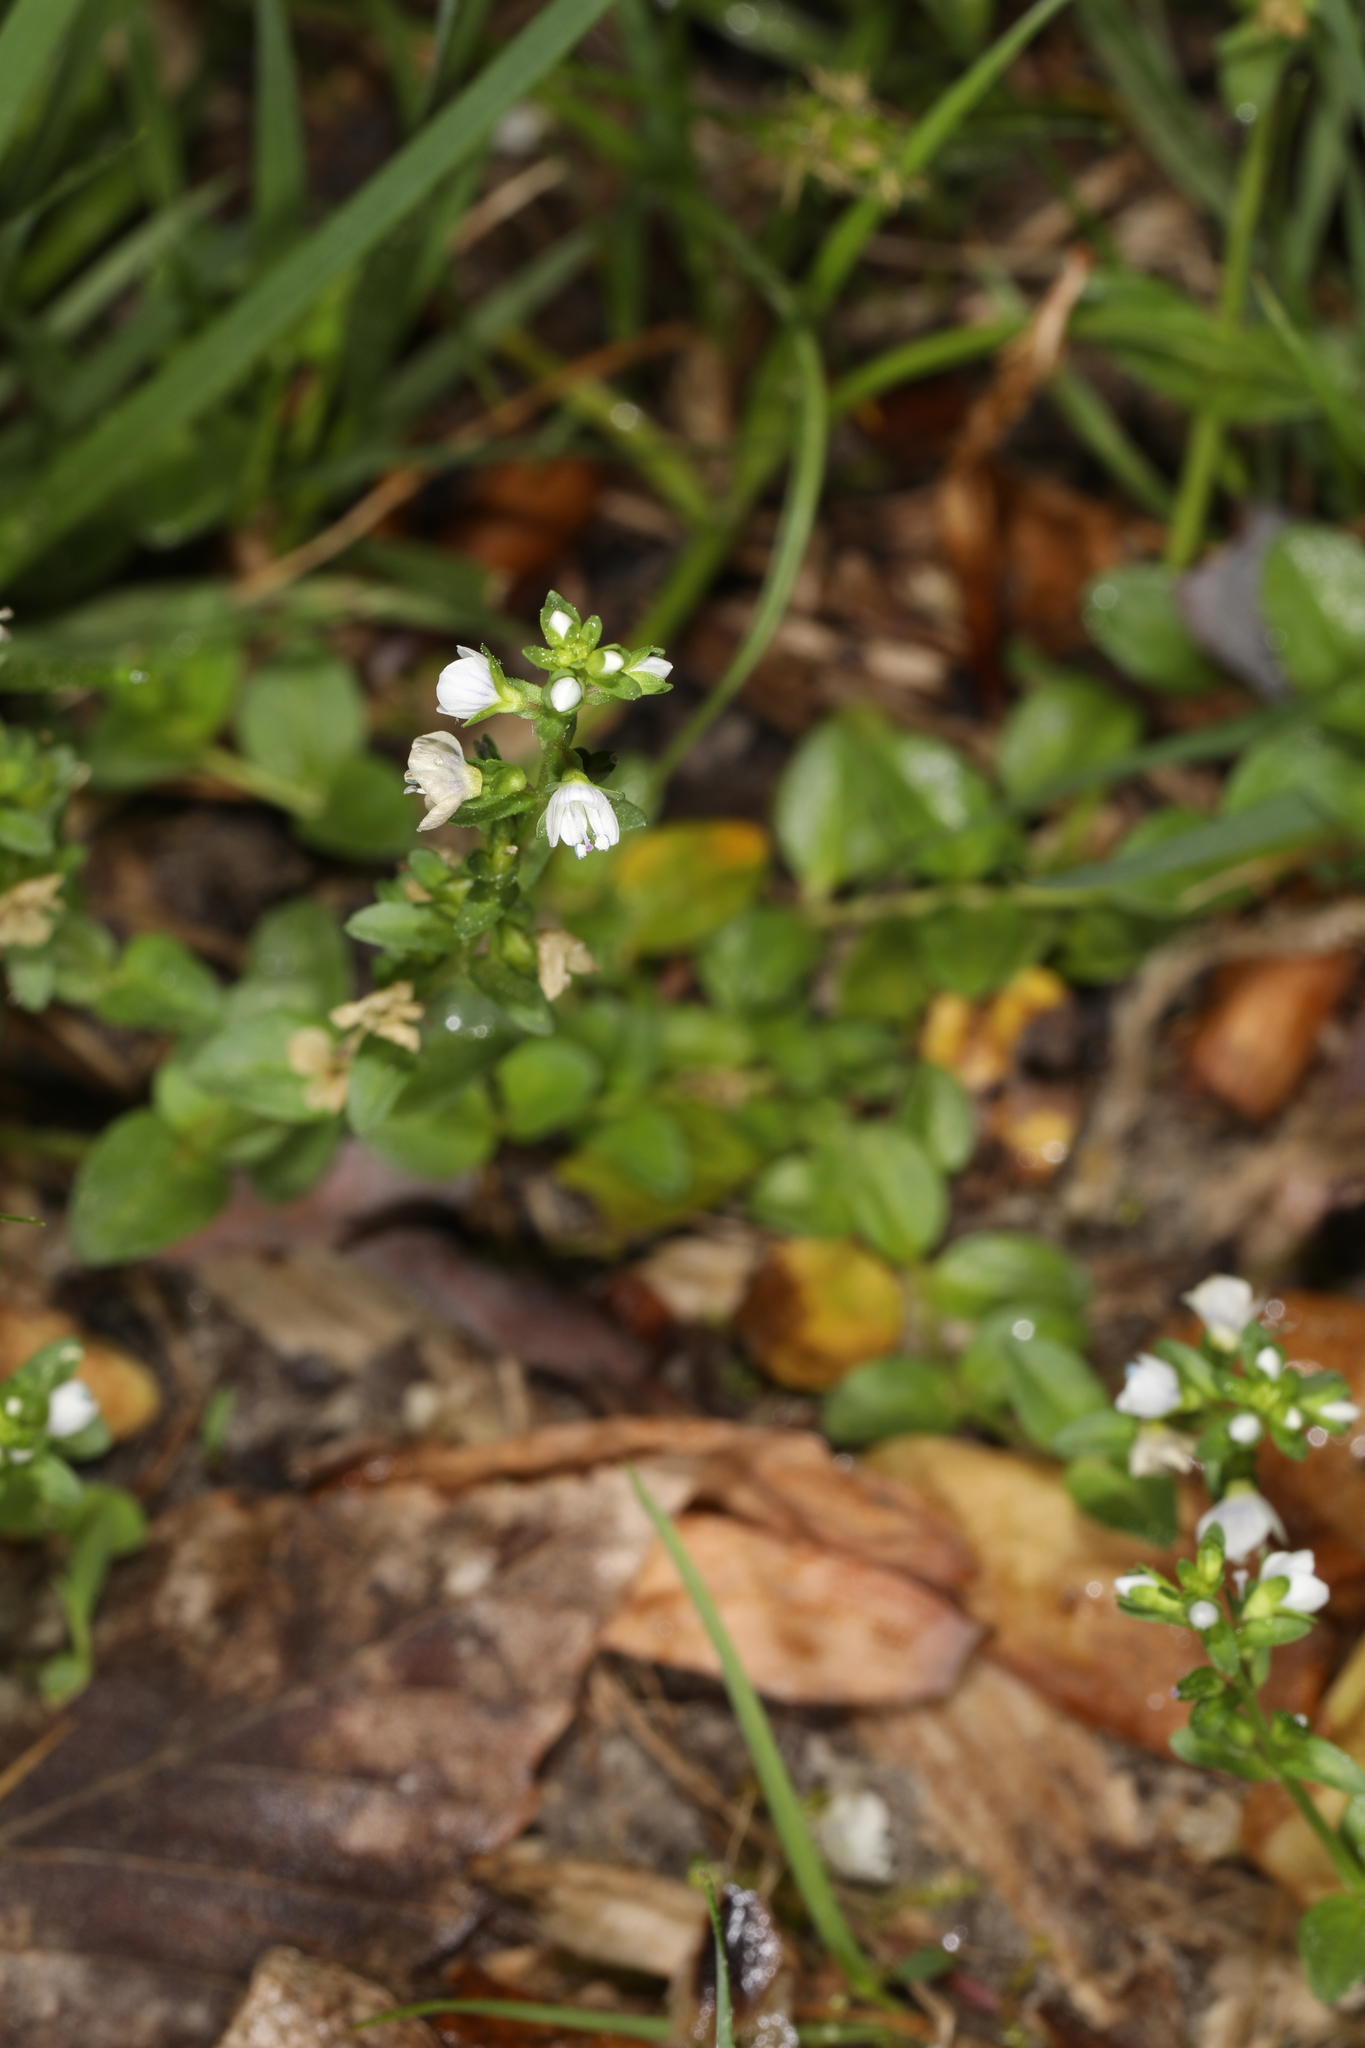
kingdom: Plantae
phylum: Tracheophyta
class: Magnoliopsida
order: Lamiales
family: Plantaginaceae
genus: Veronica
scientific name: Veronica serpyllifolia
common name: Thyme-leaved speedwell
